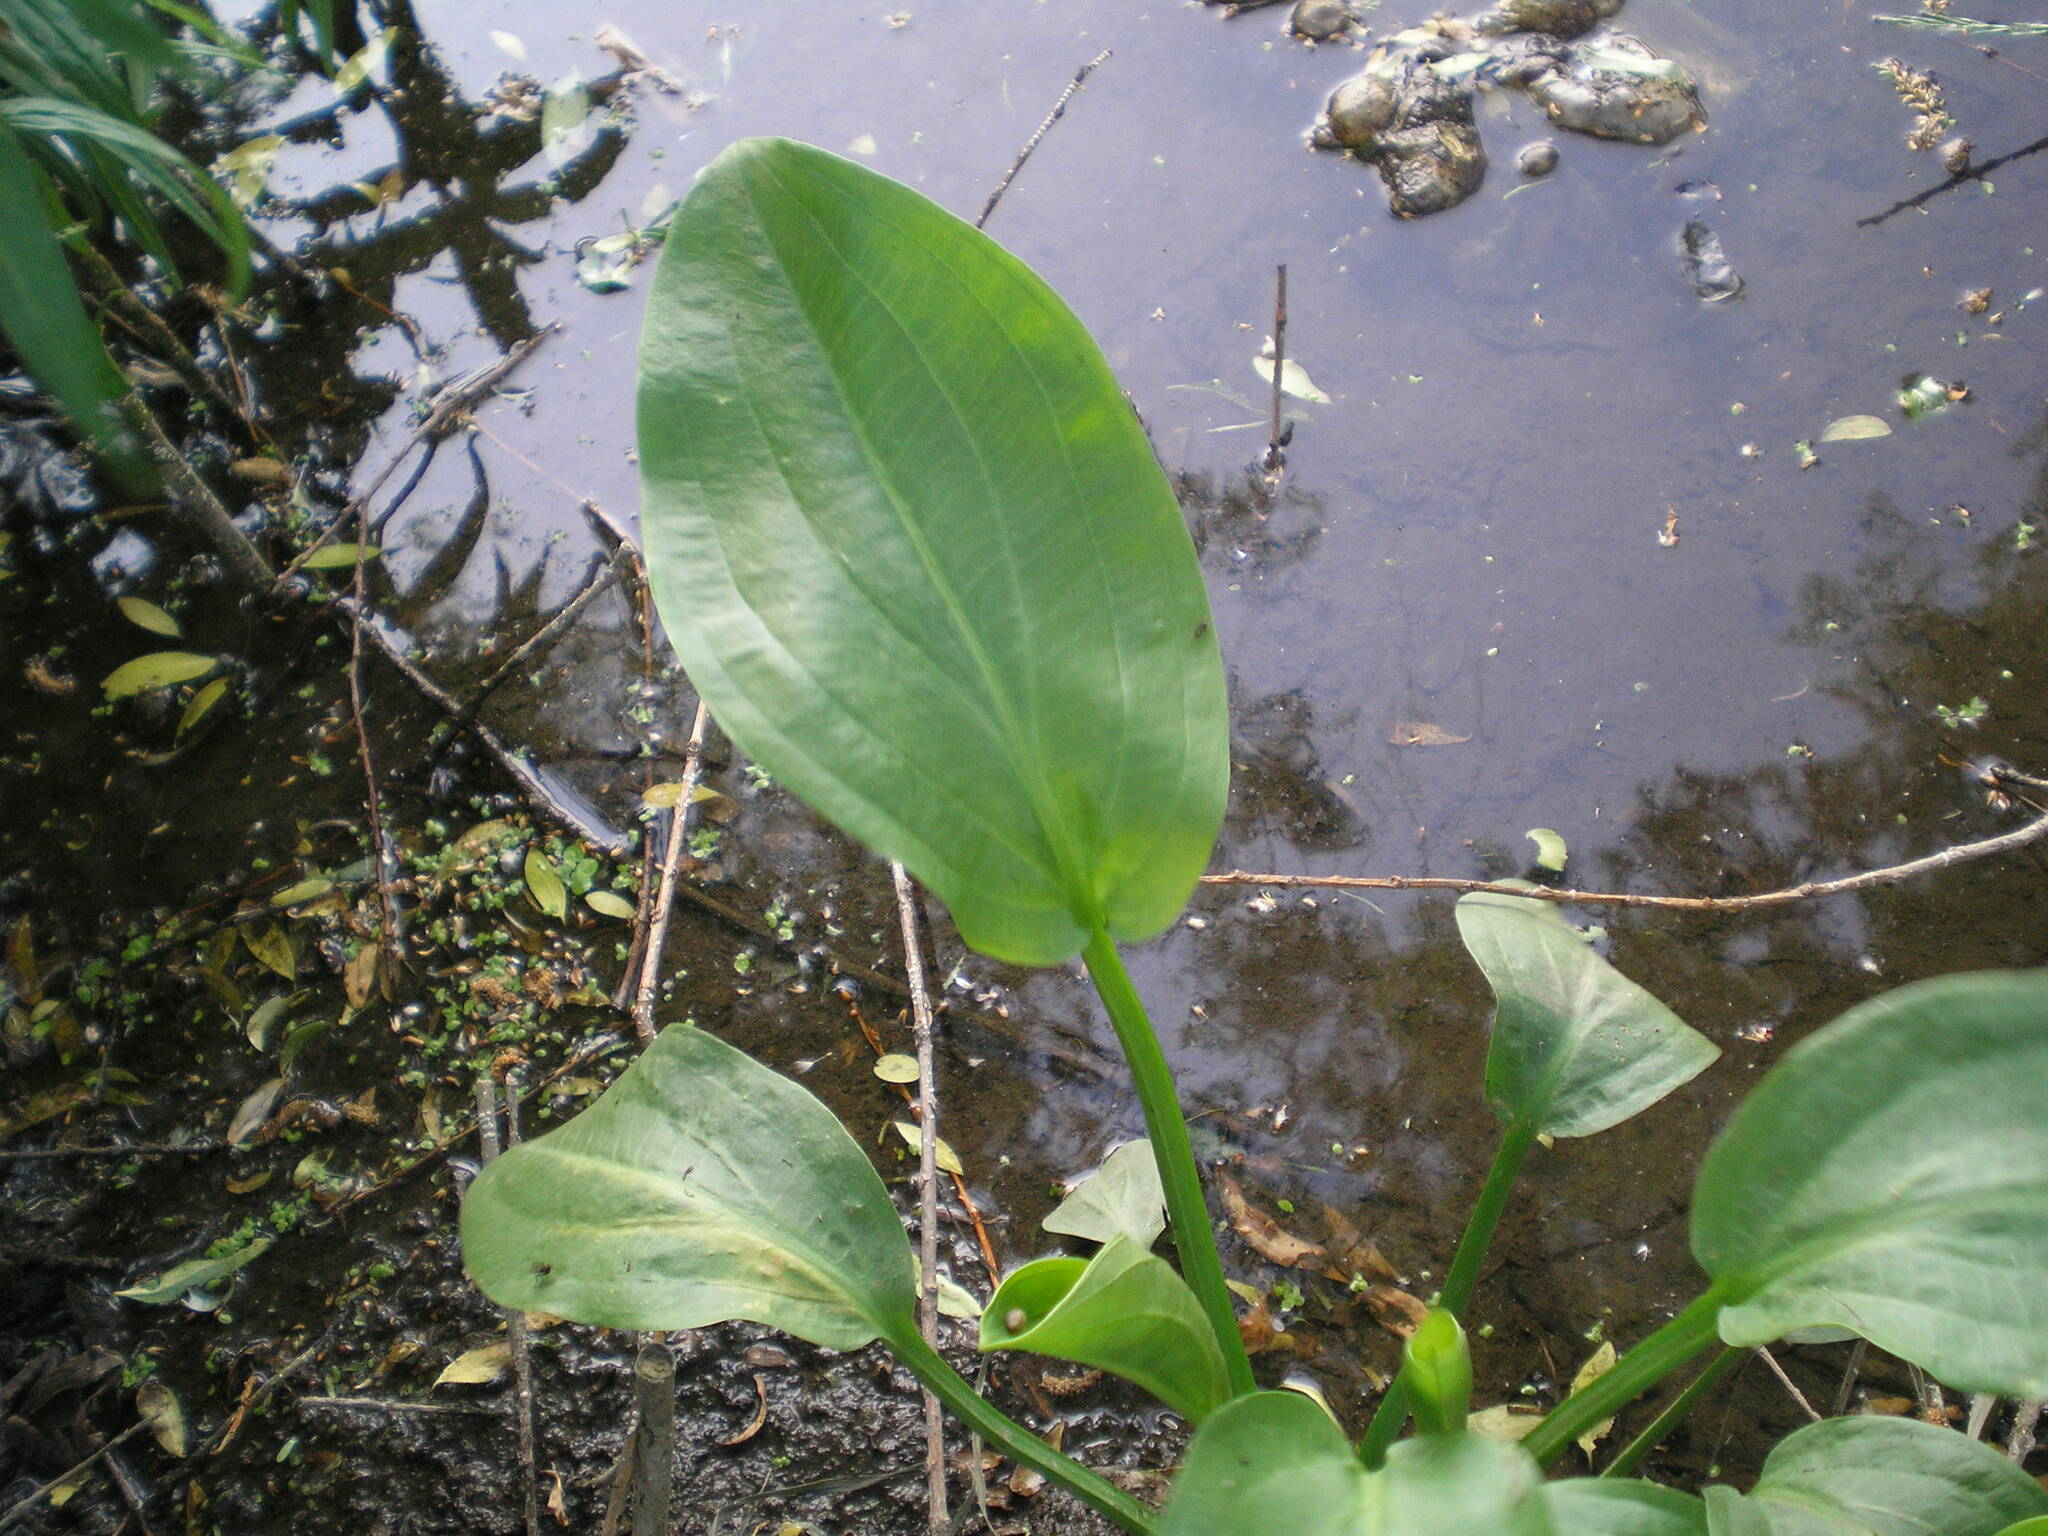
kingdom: Plantae
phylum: Tracheophyta
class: Liliopsida
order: Alismatales
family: Alismataceae
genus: Alisma
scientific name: Alisma plantago-aquatica
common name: Water-plantain
